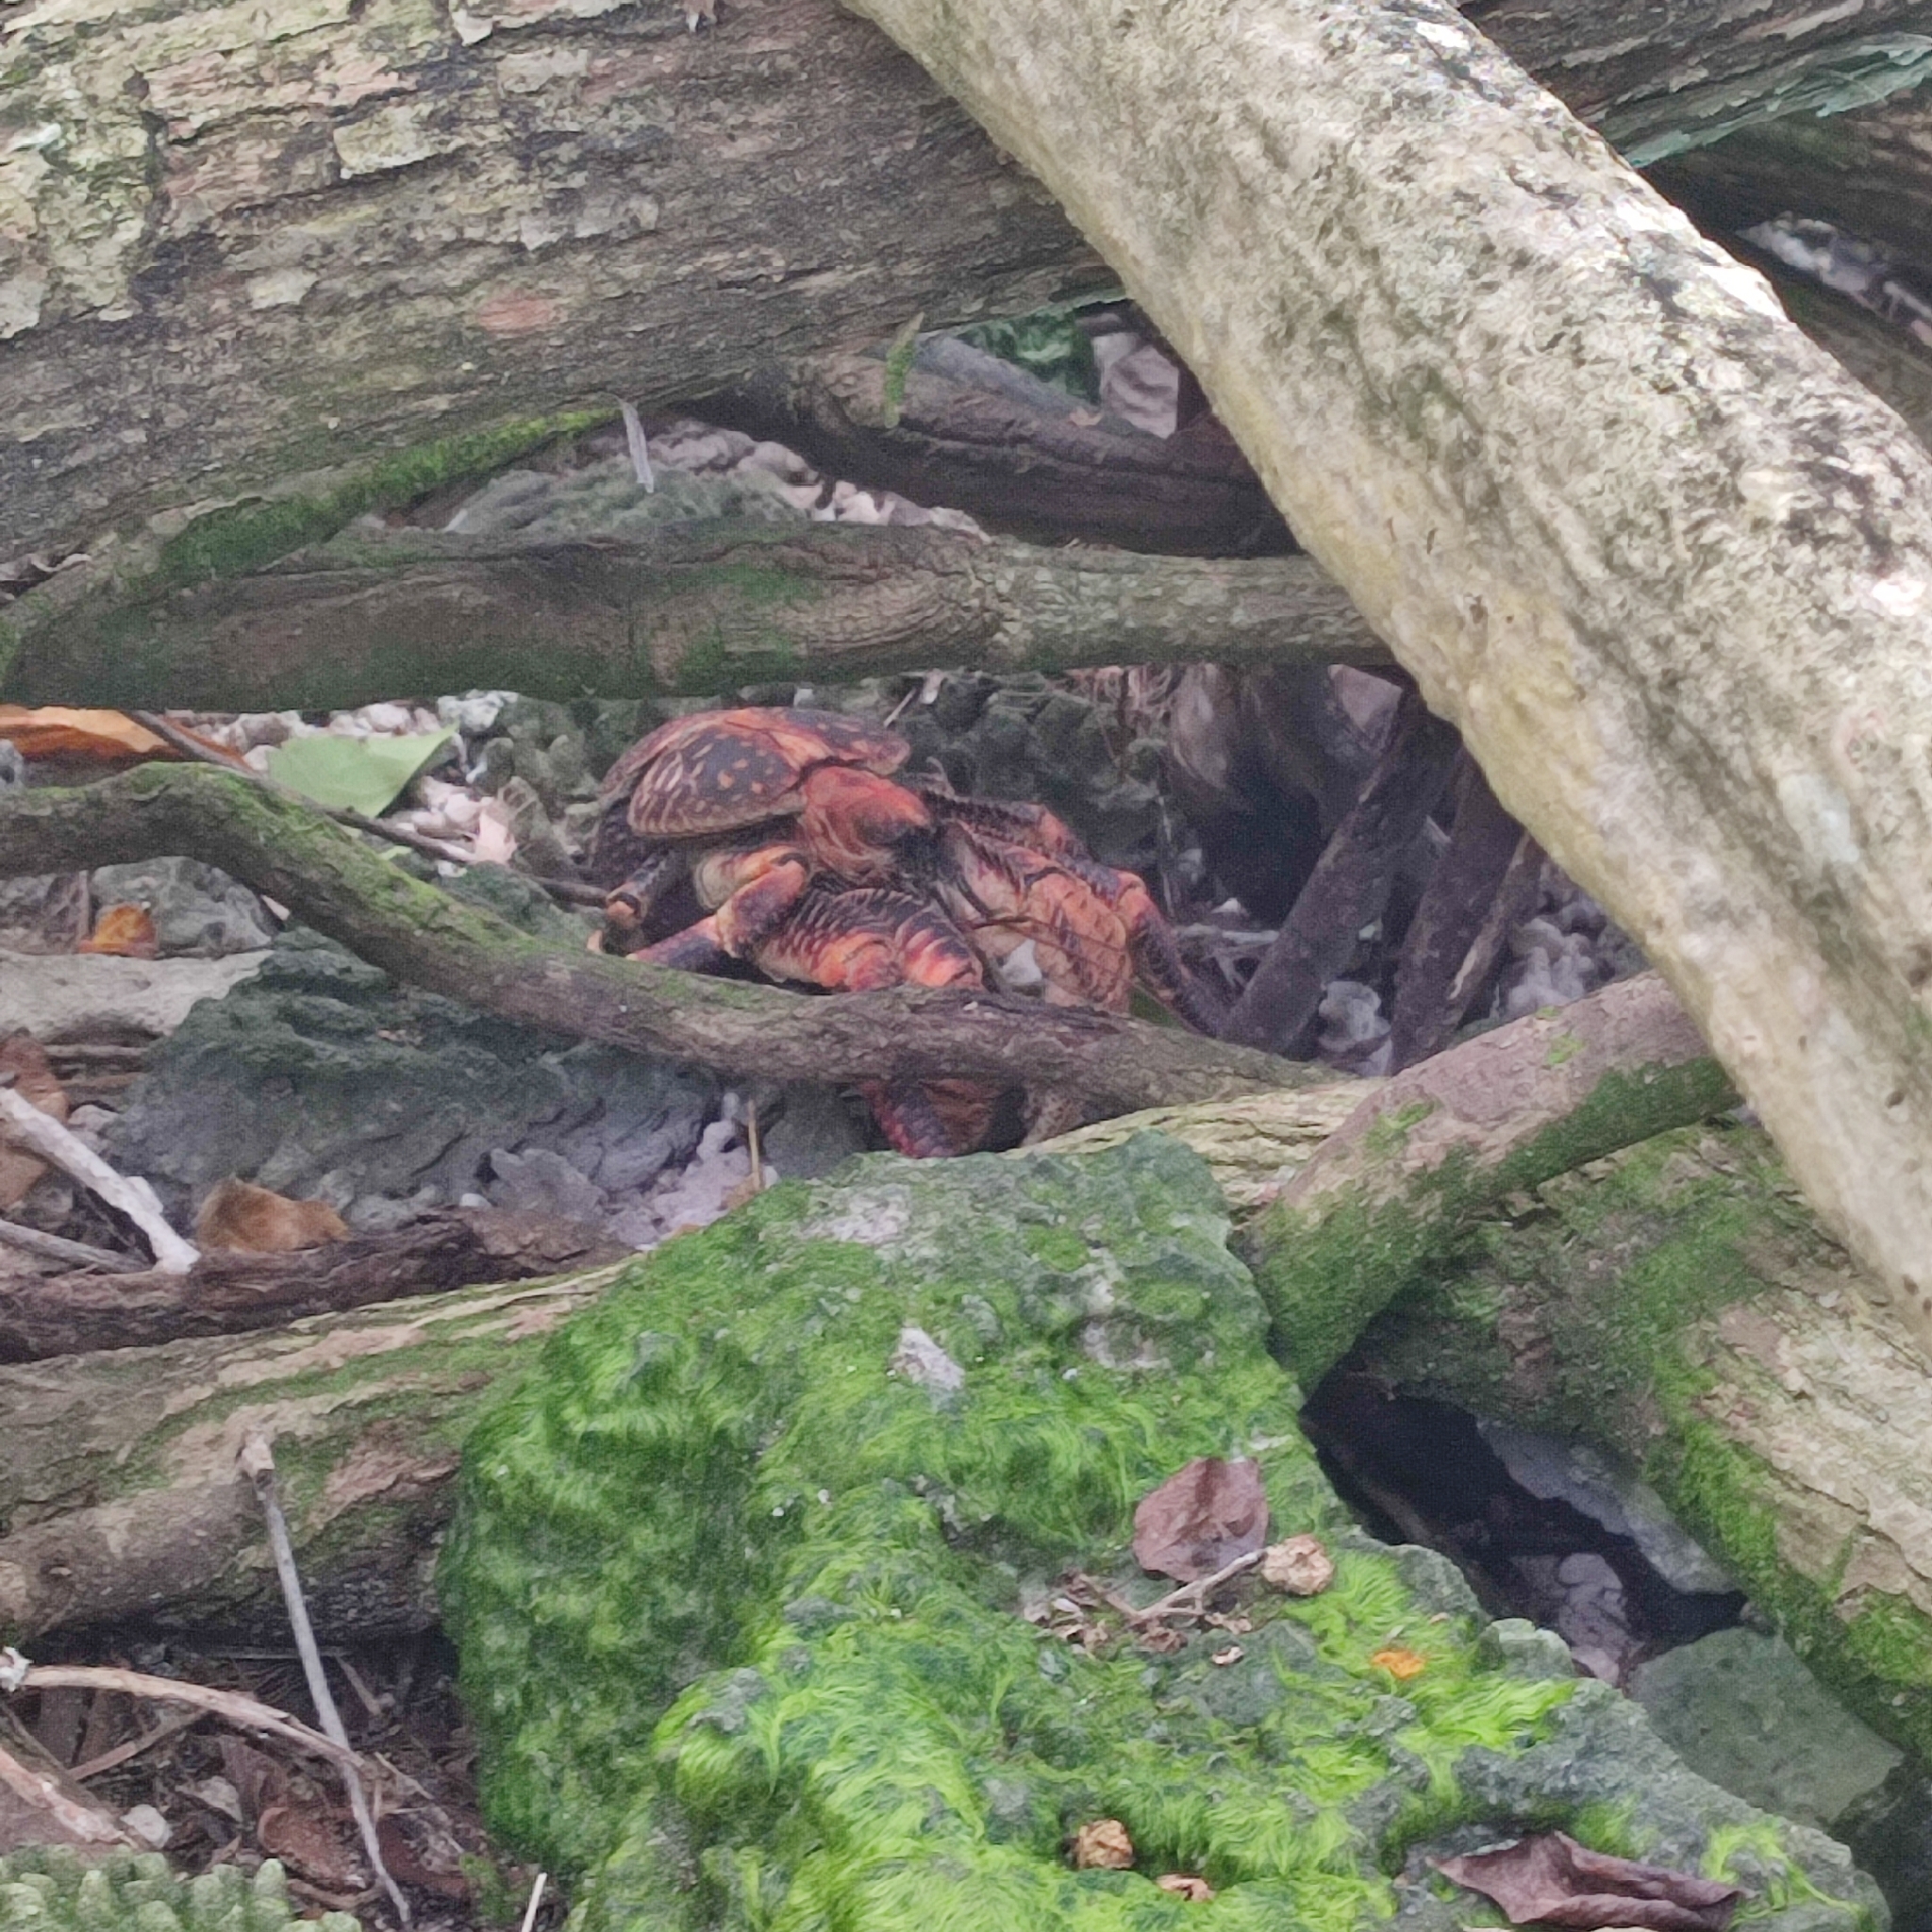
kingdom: Animalia
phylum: Arthropoda
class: Malacostraca
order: Decapoda
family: Coenobitidae
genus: Birgus
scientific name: Birgus latro
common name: Coconut crab
